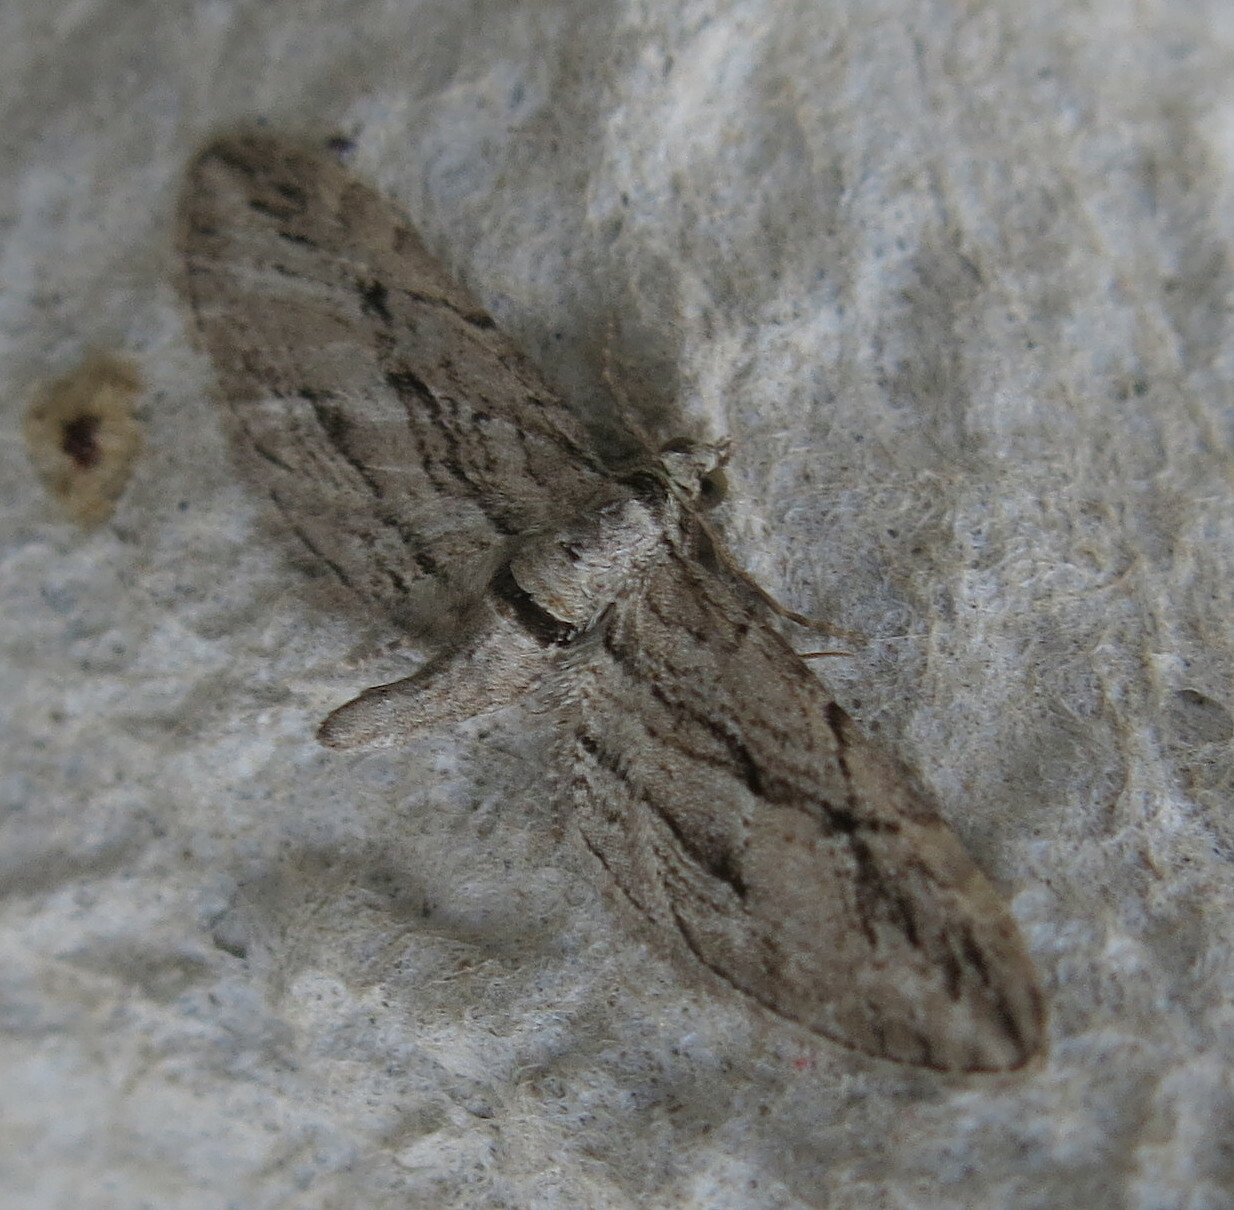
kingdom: Animalia
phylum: Arthropoda
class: Insecta
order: Lepidoptera
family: Geometridae
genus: Eupithecia
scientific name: Eupithecia phoeniceata
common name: Cypress pug
